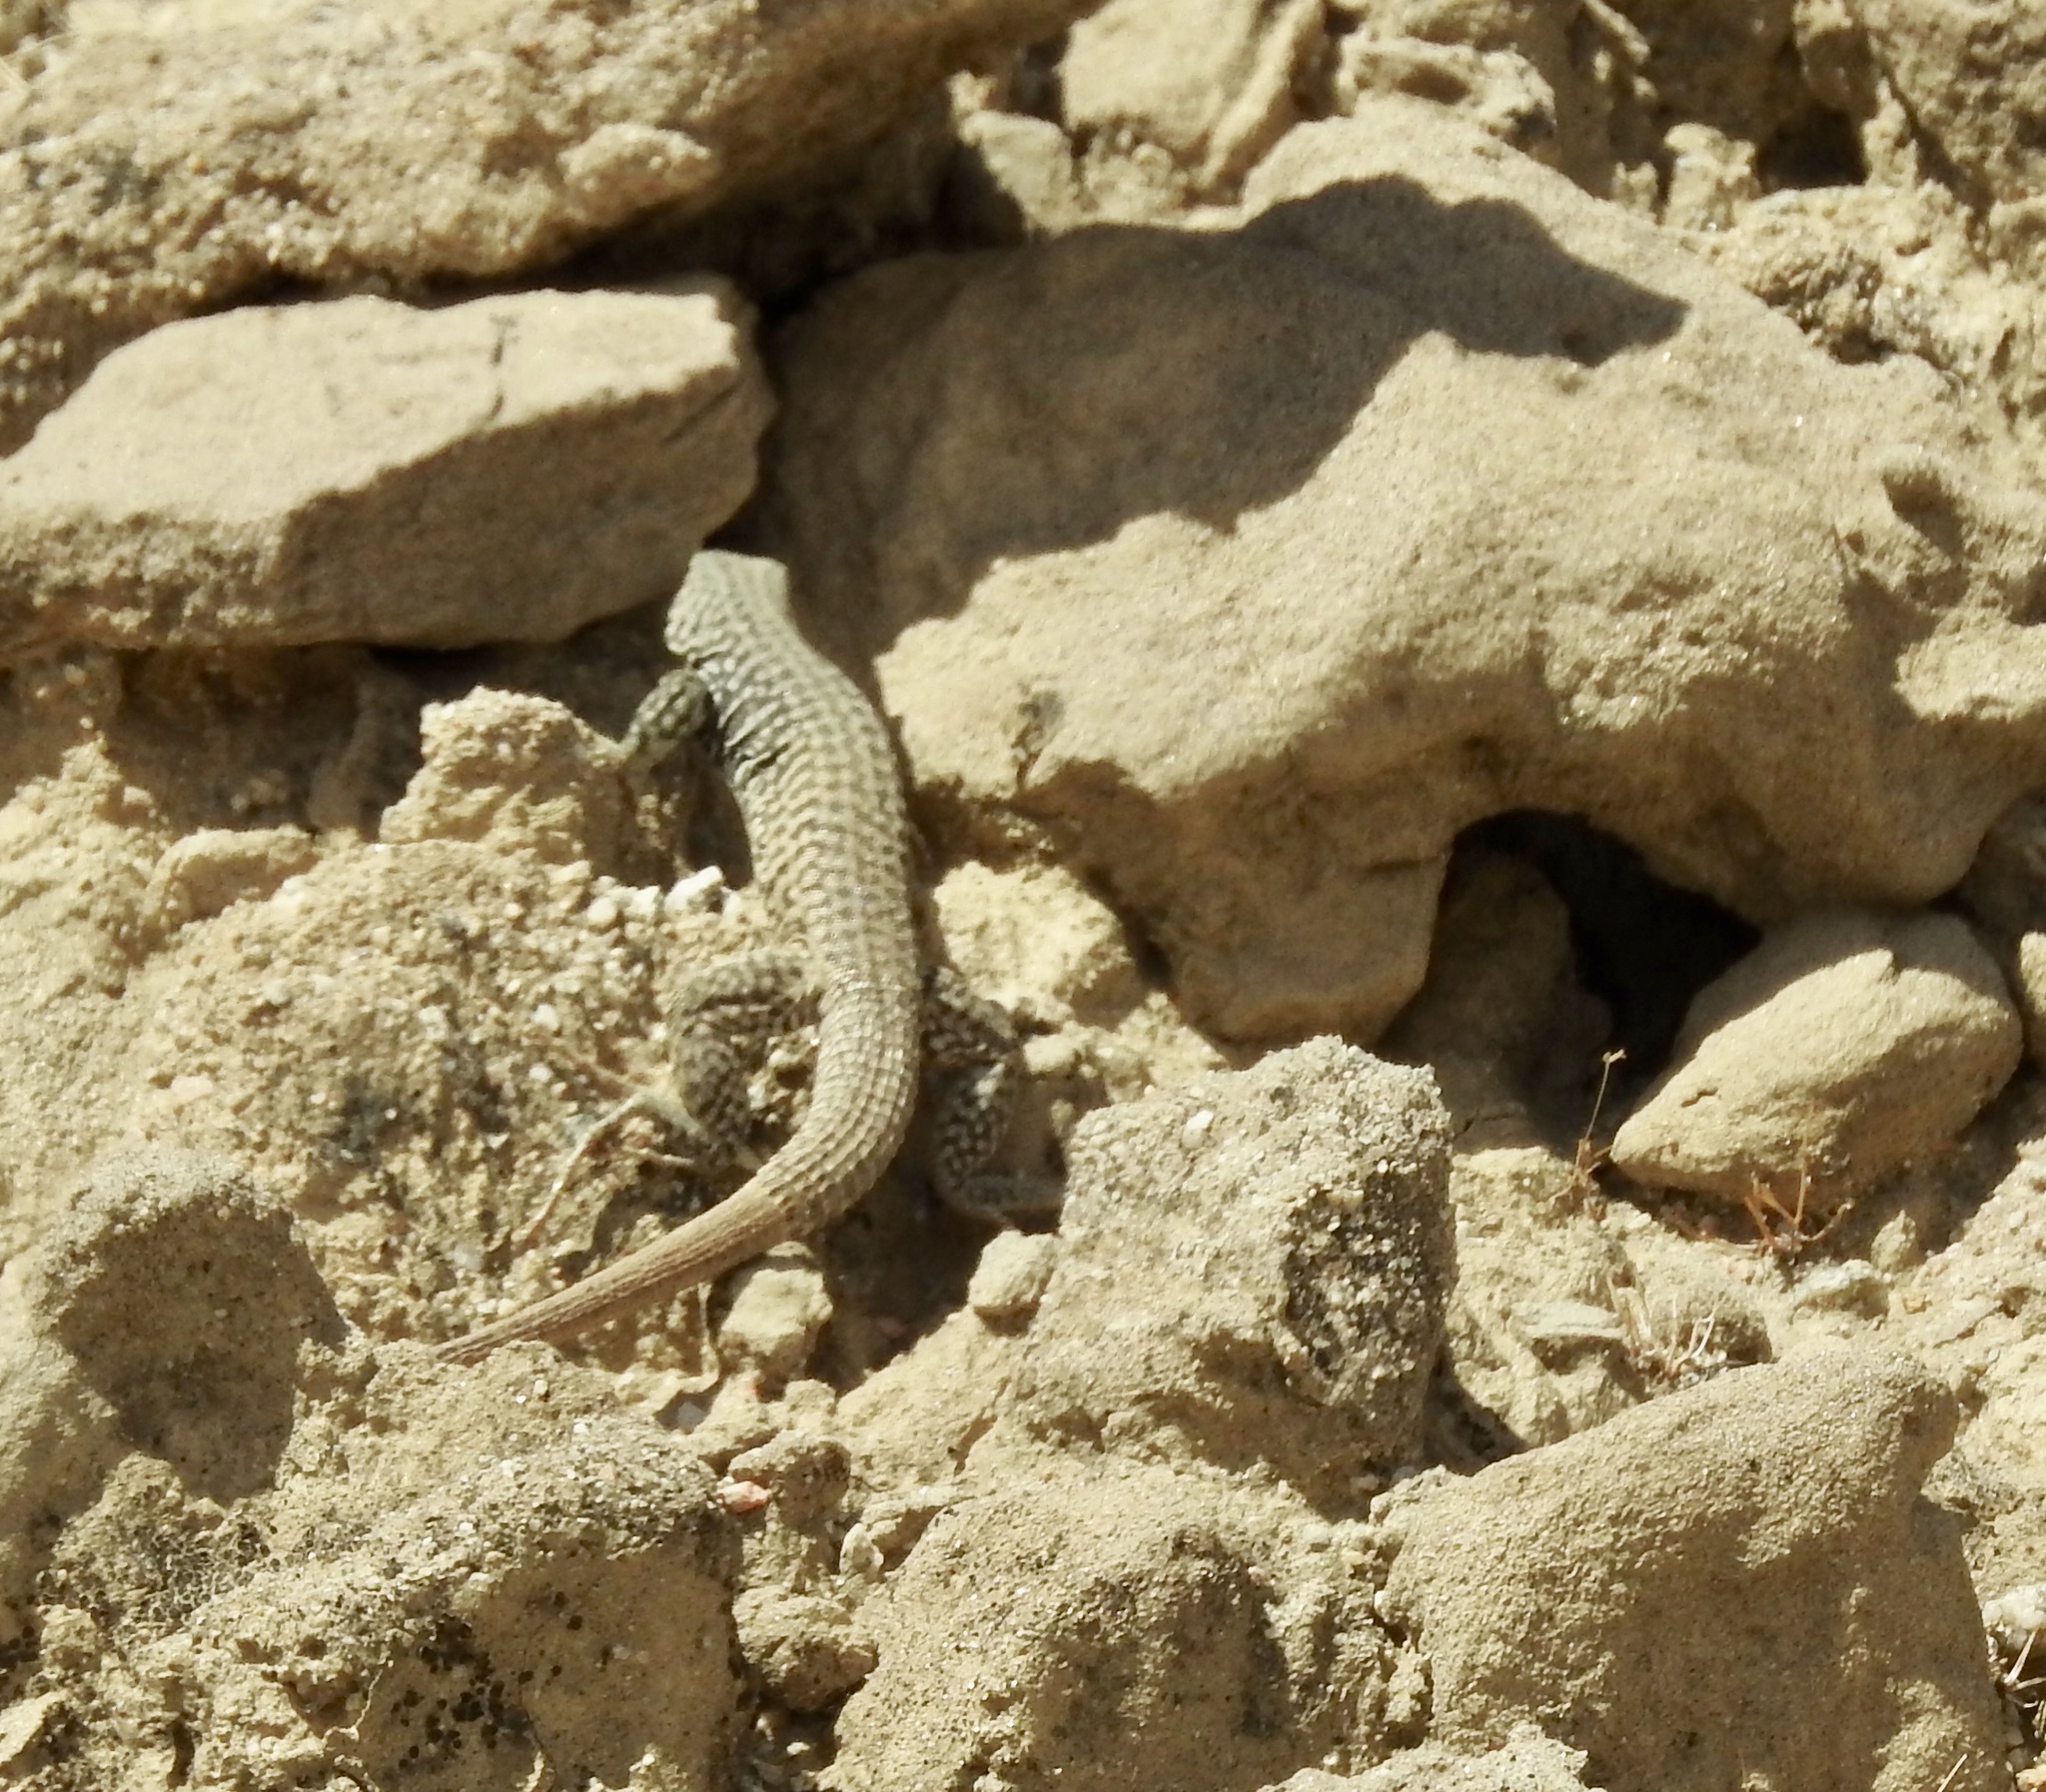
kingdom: Animalia
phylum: Chordata
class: Squamata
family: Teiidae
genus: Aspidoscelis
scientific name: Aspidoscelis tigris
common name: Tiger whiptail
